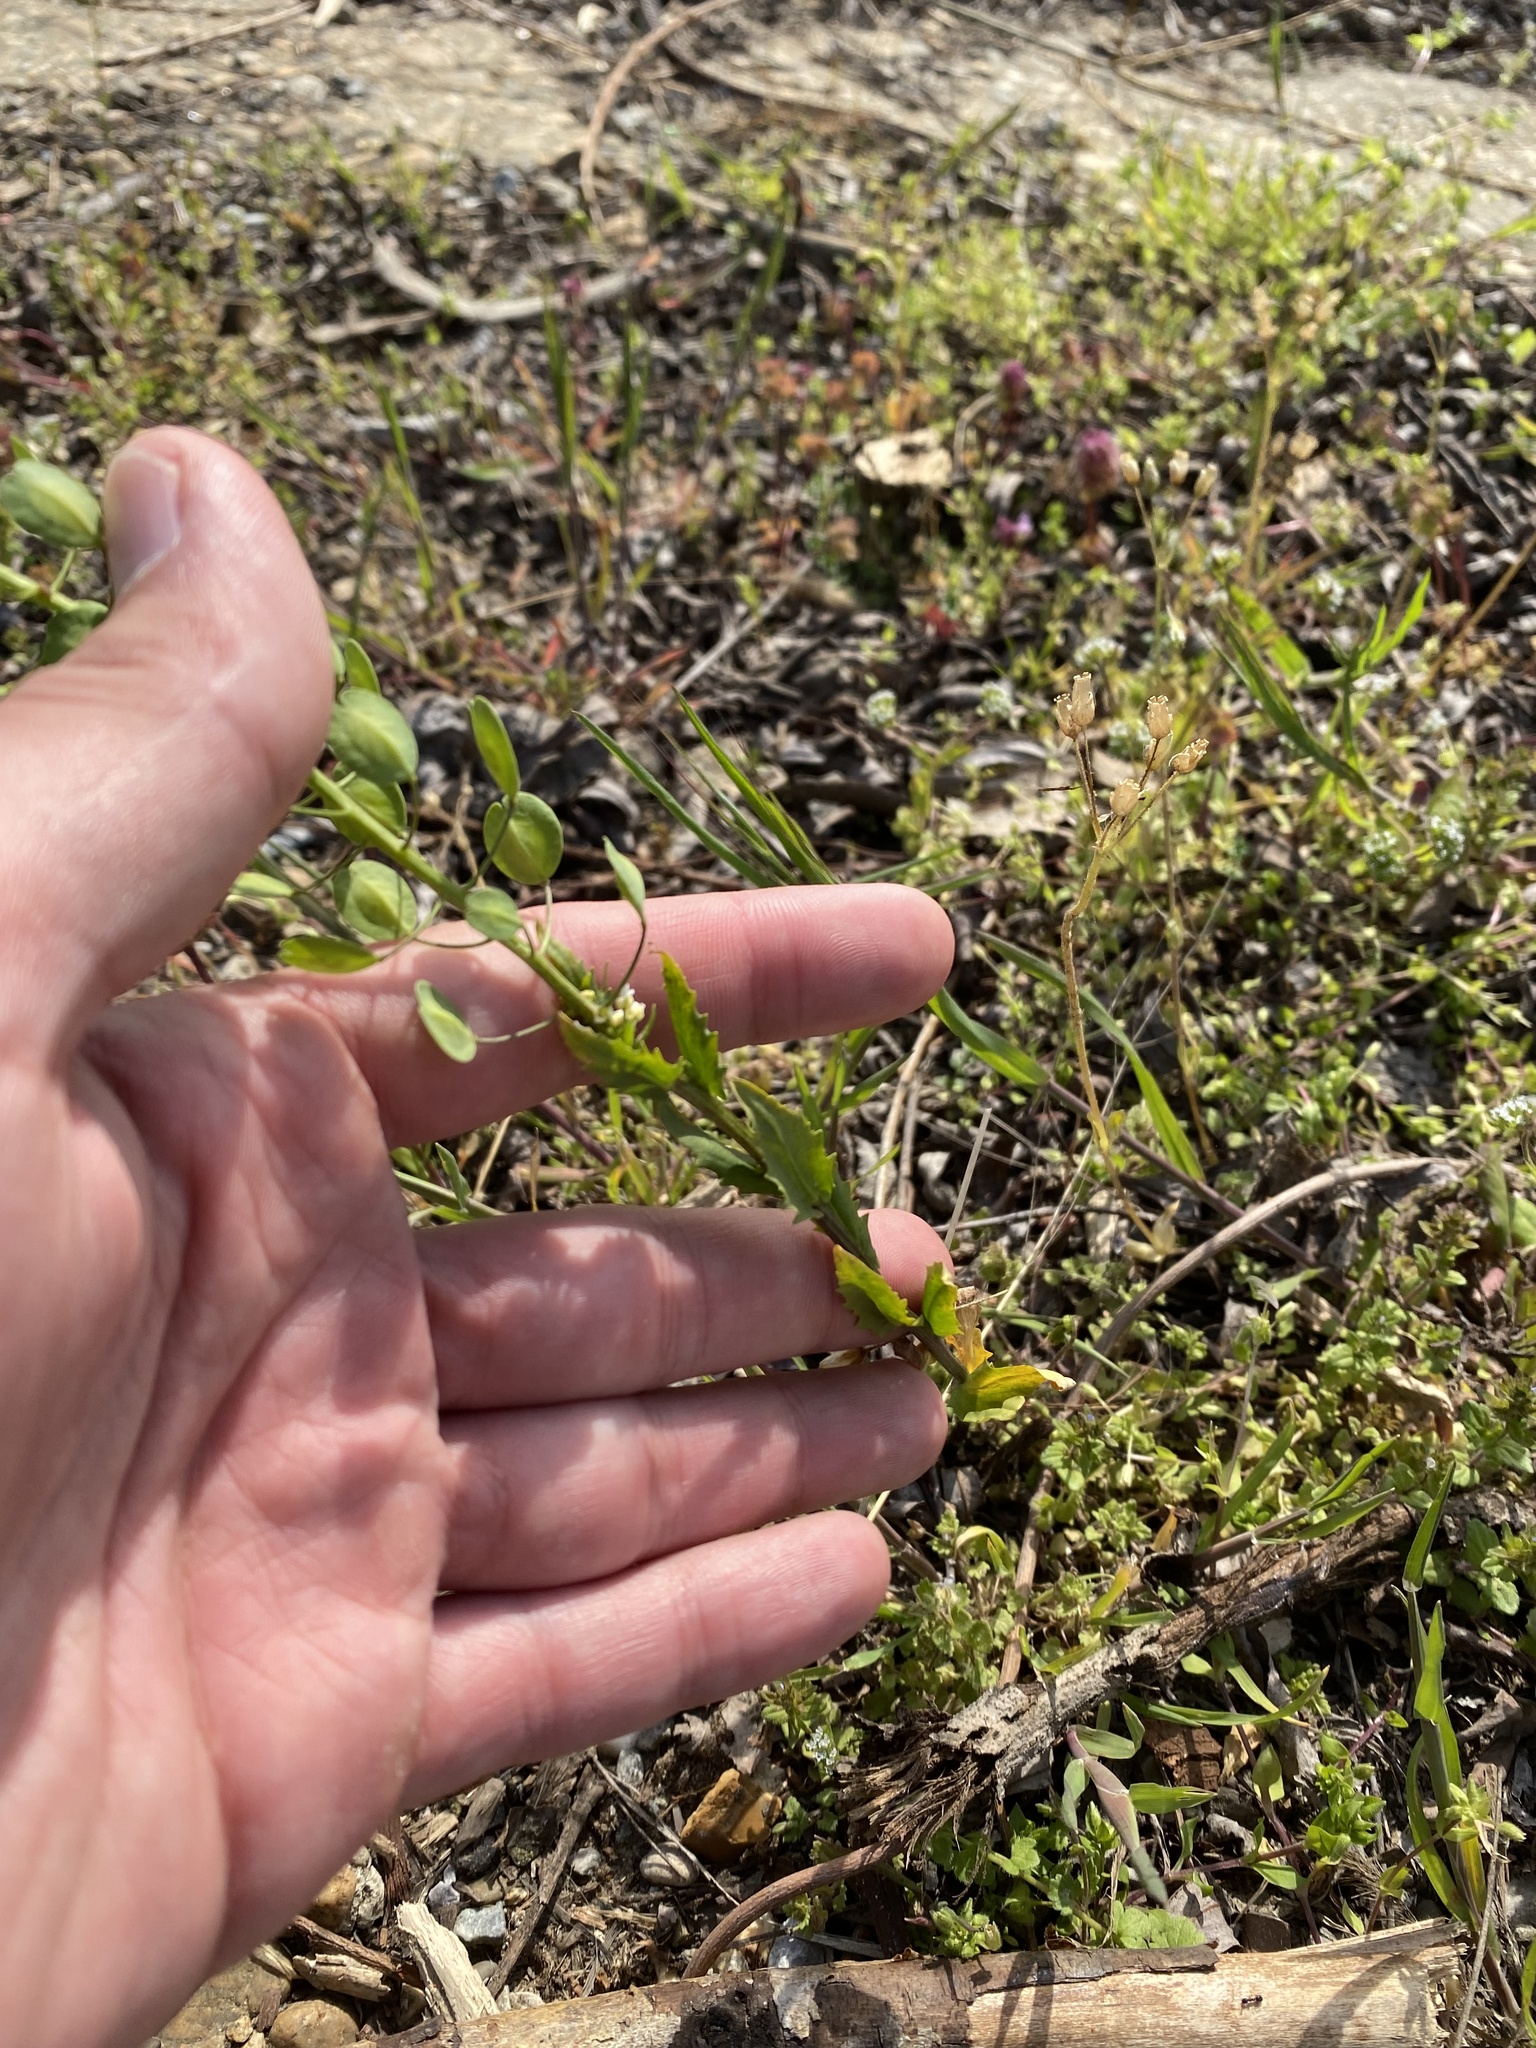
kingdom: Plantae
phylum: Tracheophyta
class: Magnoliopsida
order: Brassicales
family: Brassicaceae
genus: Thlaspi
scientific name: Thlaspi arvense
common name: Field pennycress
